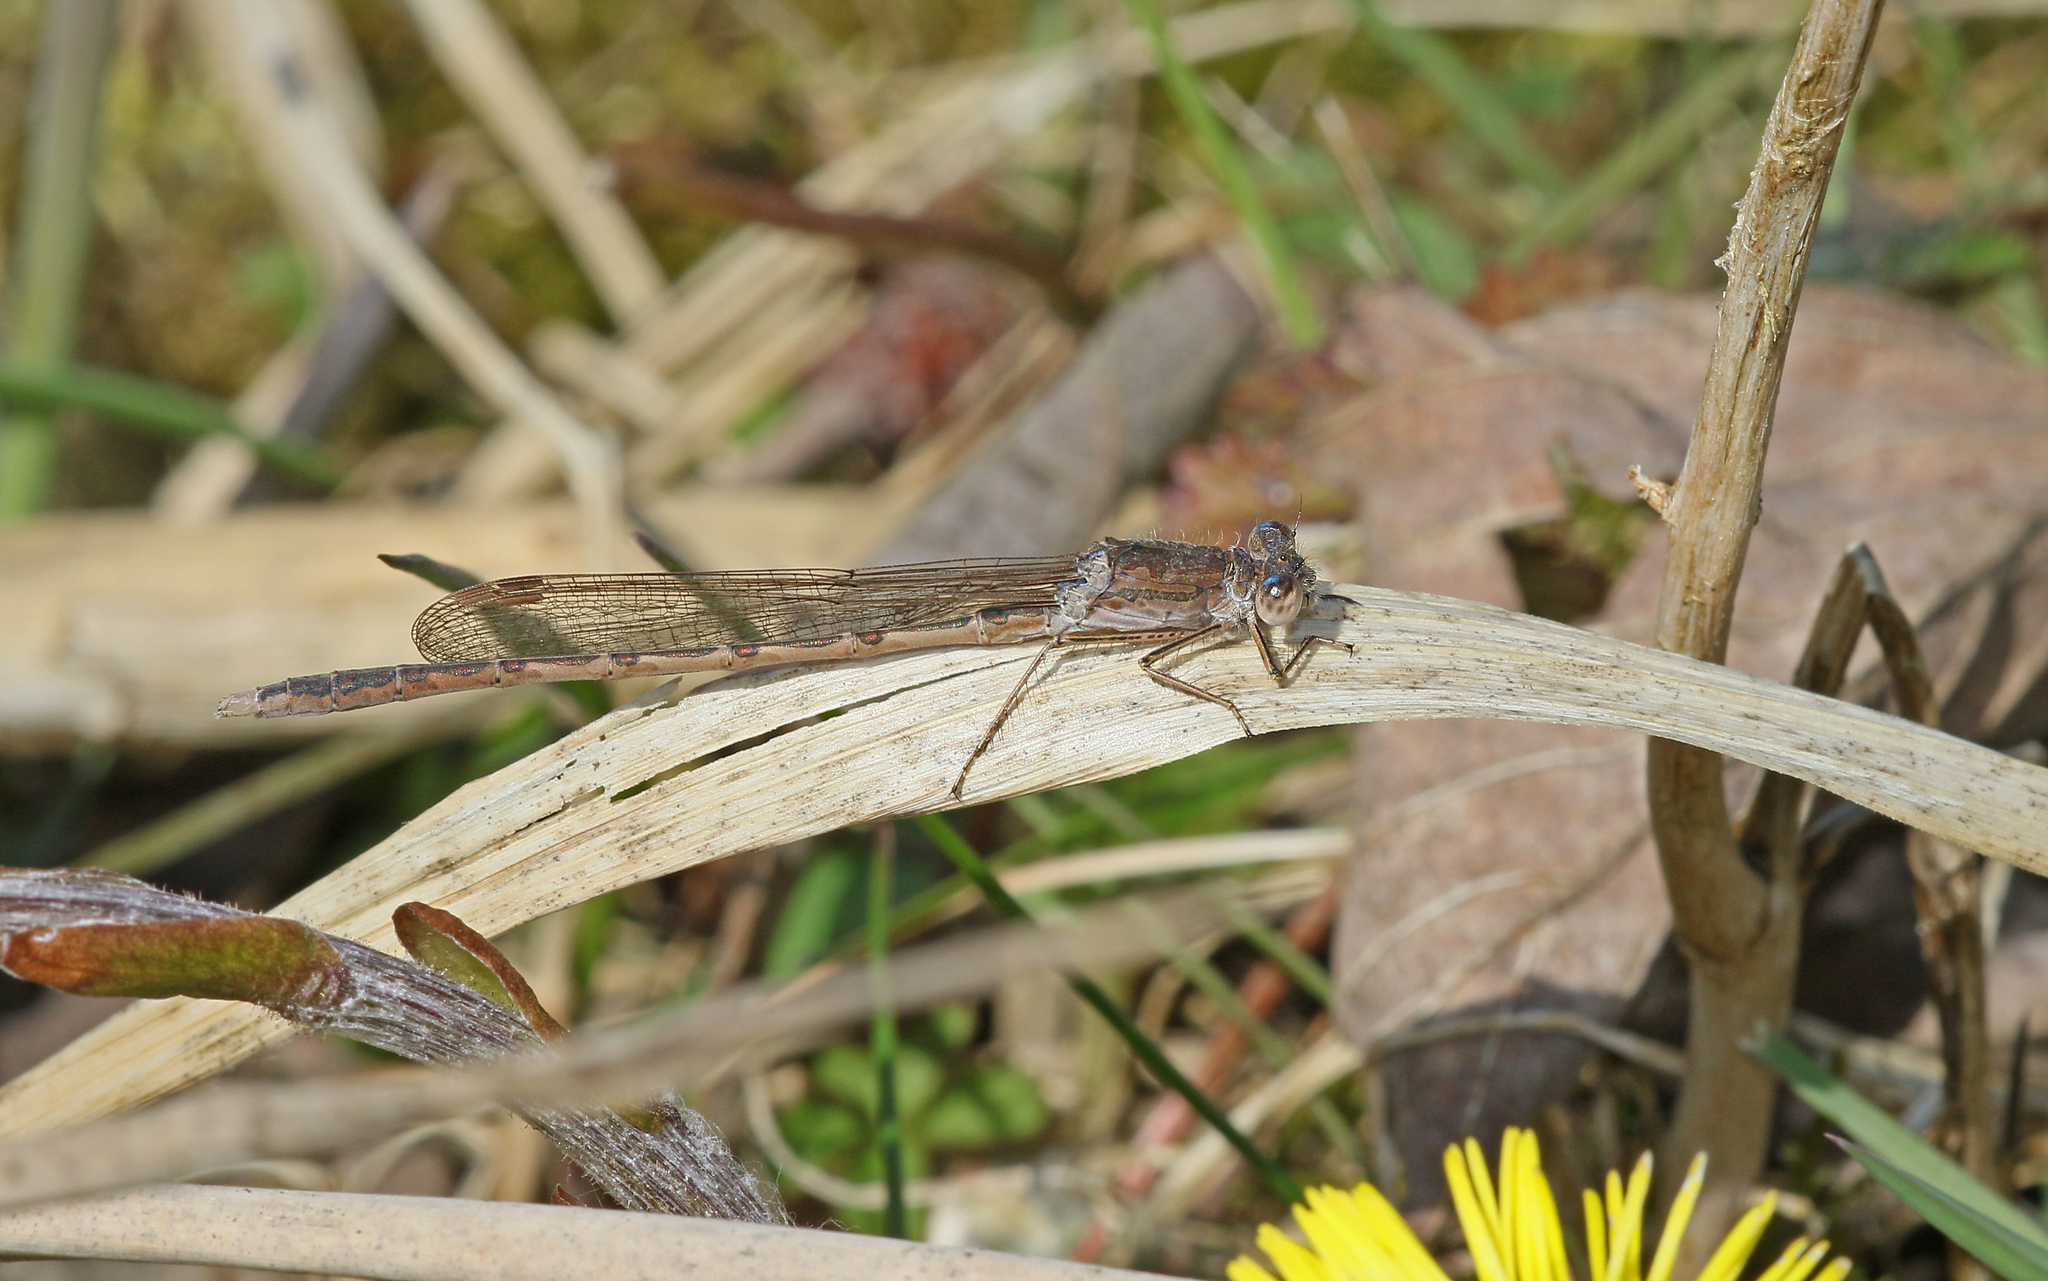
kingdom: Animalia
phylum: Arthropoda
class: Insecta
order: Odonata
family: Lestidae
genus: Sympecma
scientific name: Sympecma paedisca
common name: Siberian winter damsel
